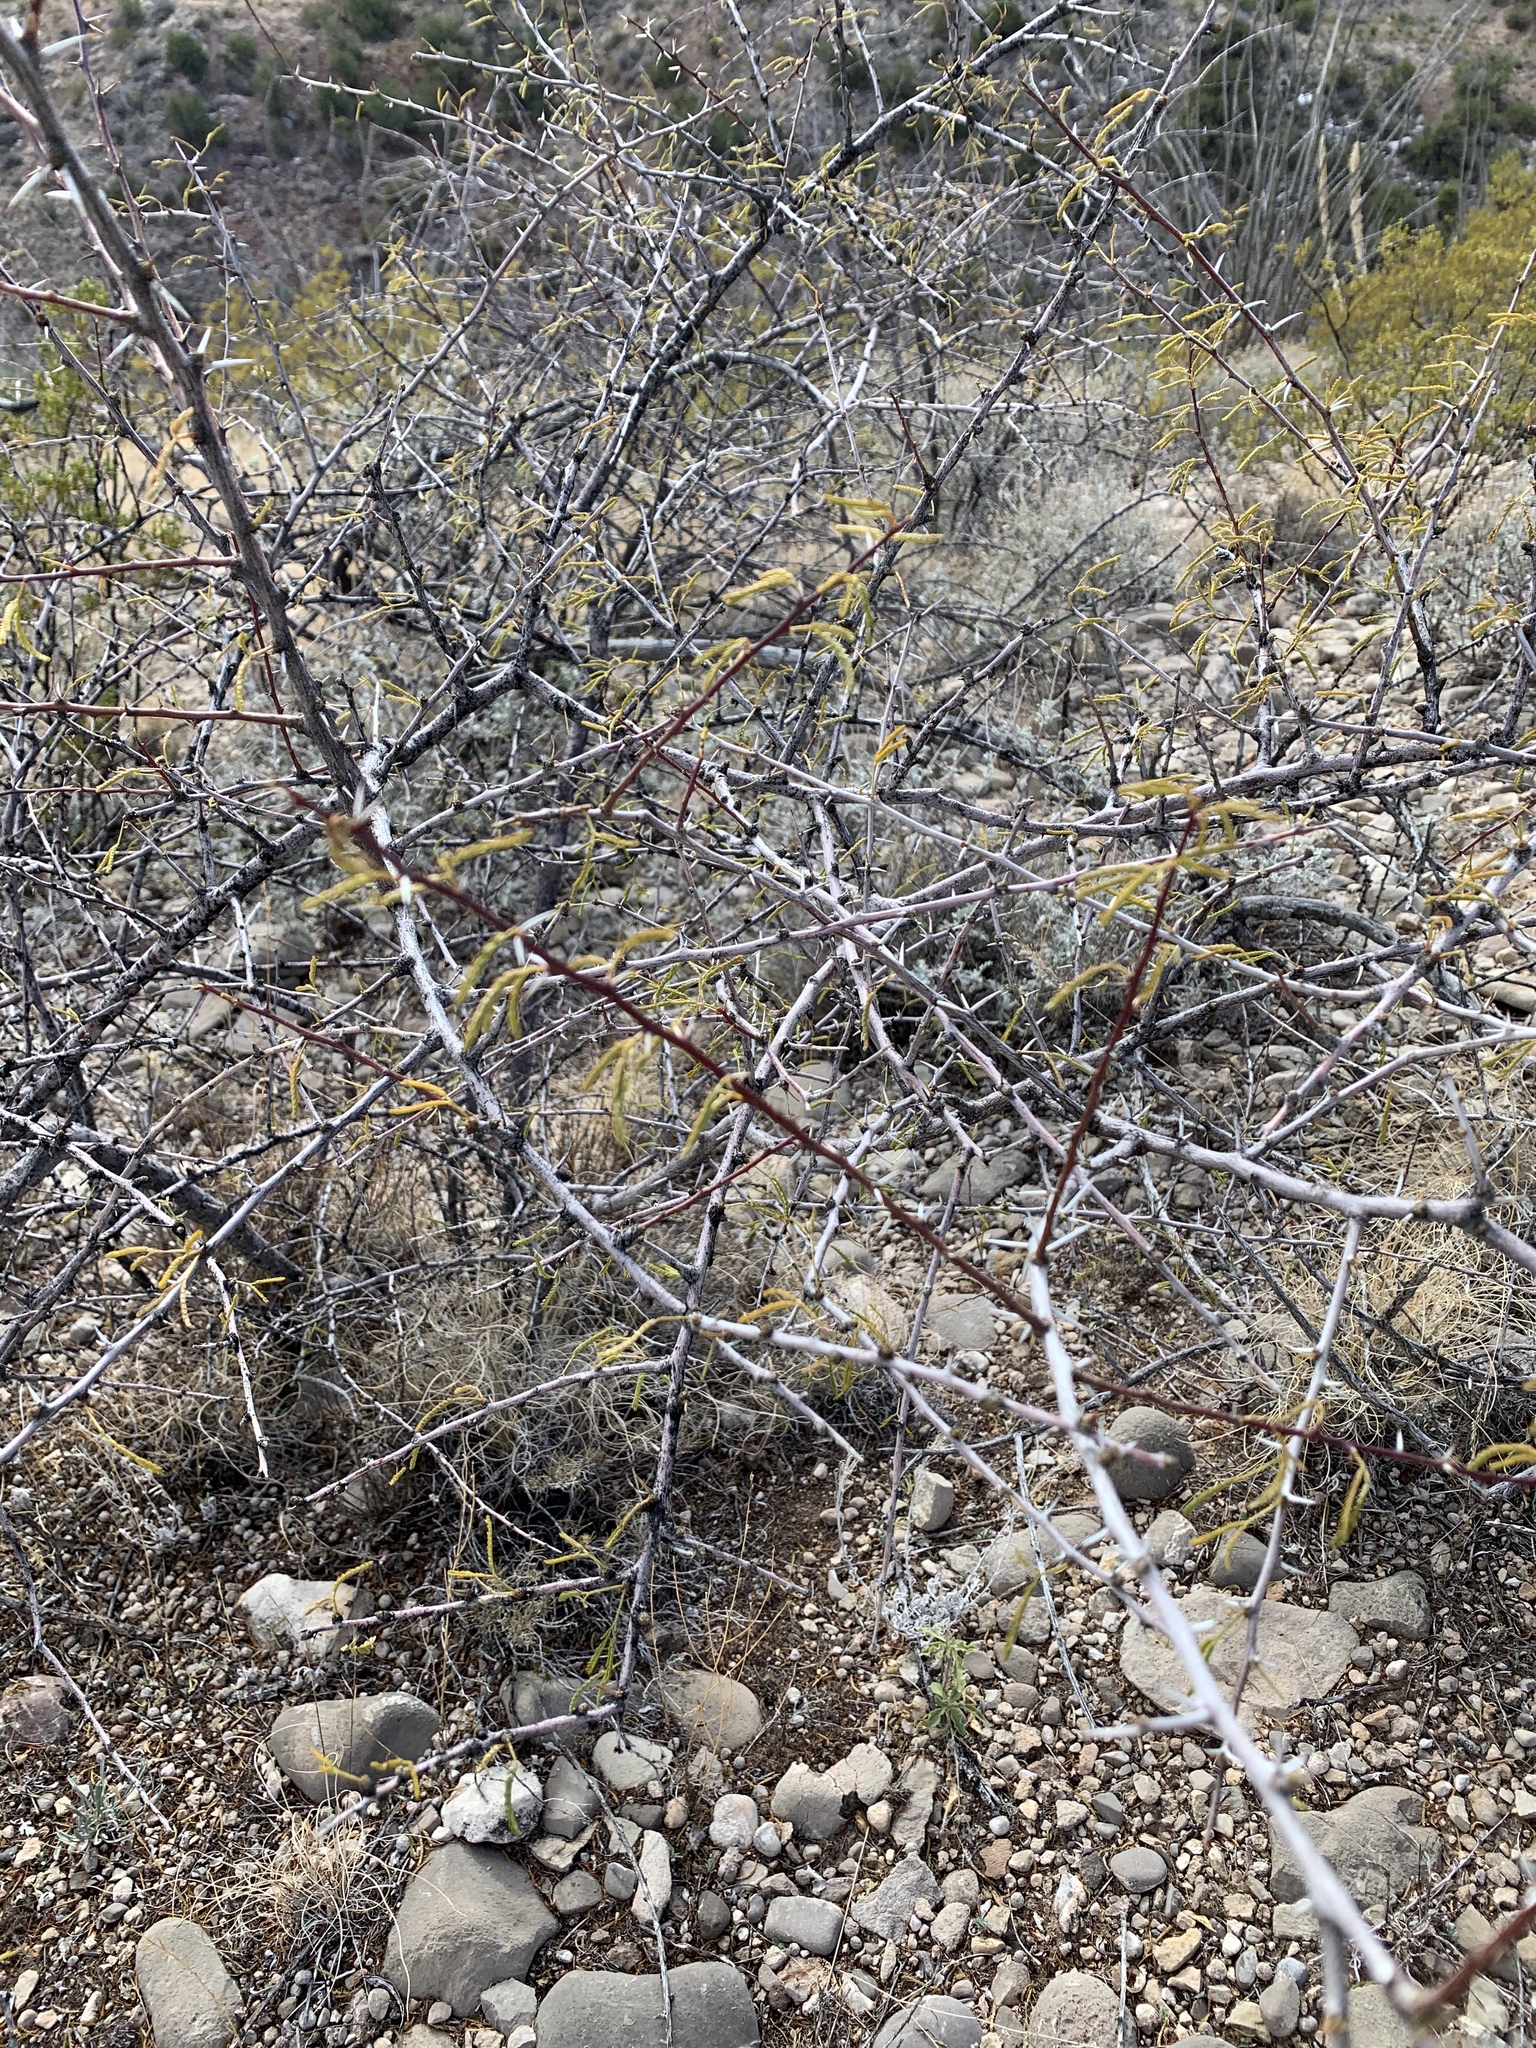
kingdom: Plantae
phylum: Tracheophyta
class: Magnoliopsida
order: Fabales
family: Fabaceae
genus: Vachellia
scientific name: Vachellia constricta
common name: Mescat acacia
